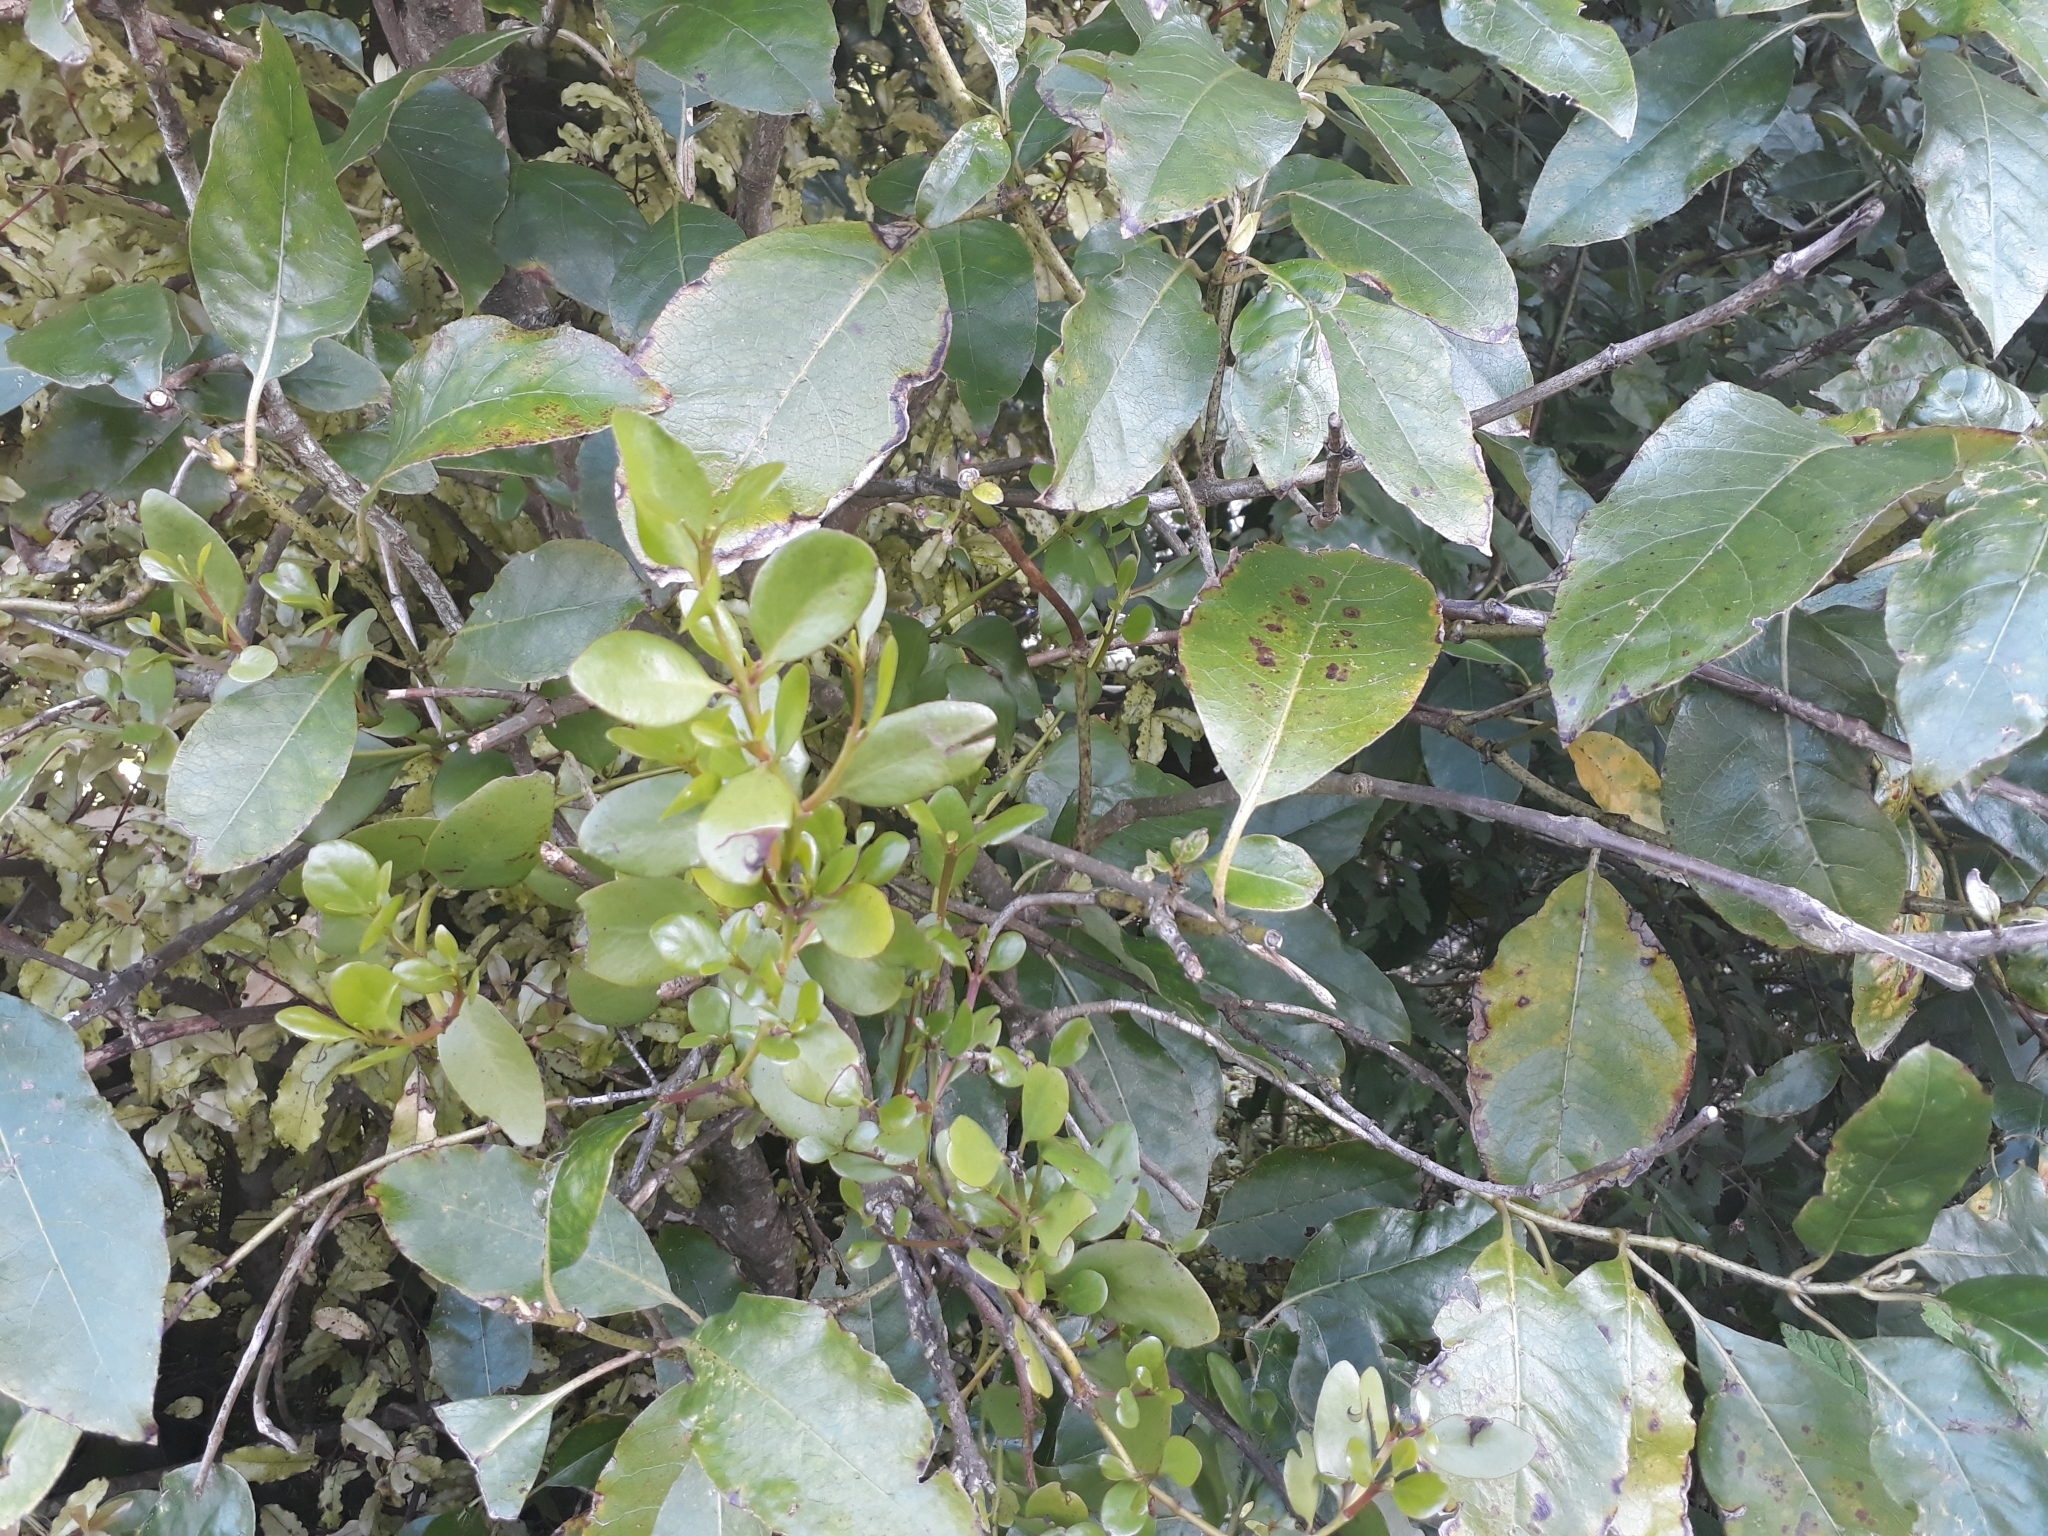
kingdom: Plantae
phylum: Tracheophyta
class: Magnoliopsida
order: Santalales
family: Loranthaceae
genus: Ileostylus
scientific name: Ileostylus micranthus
